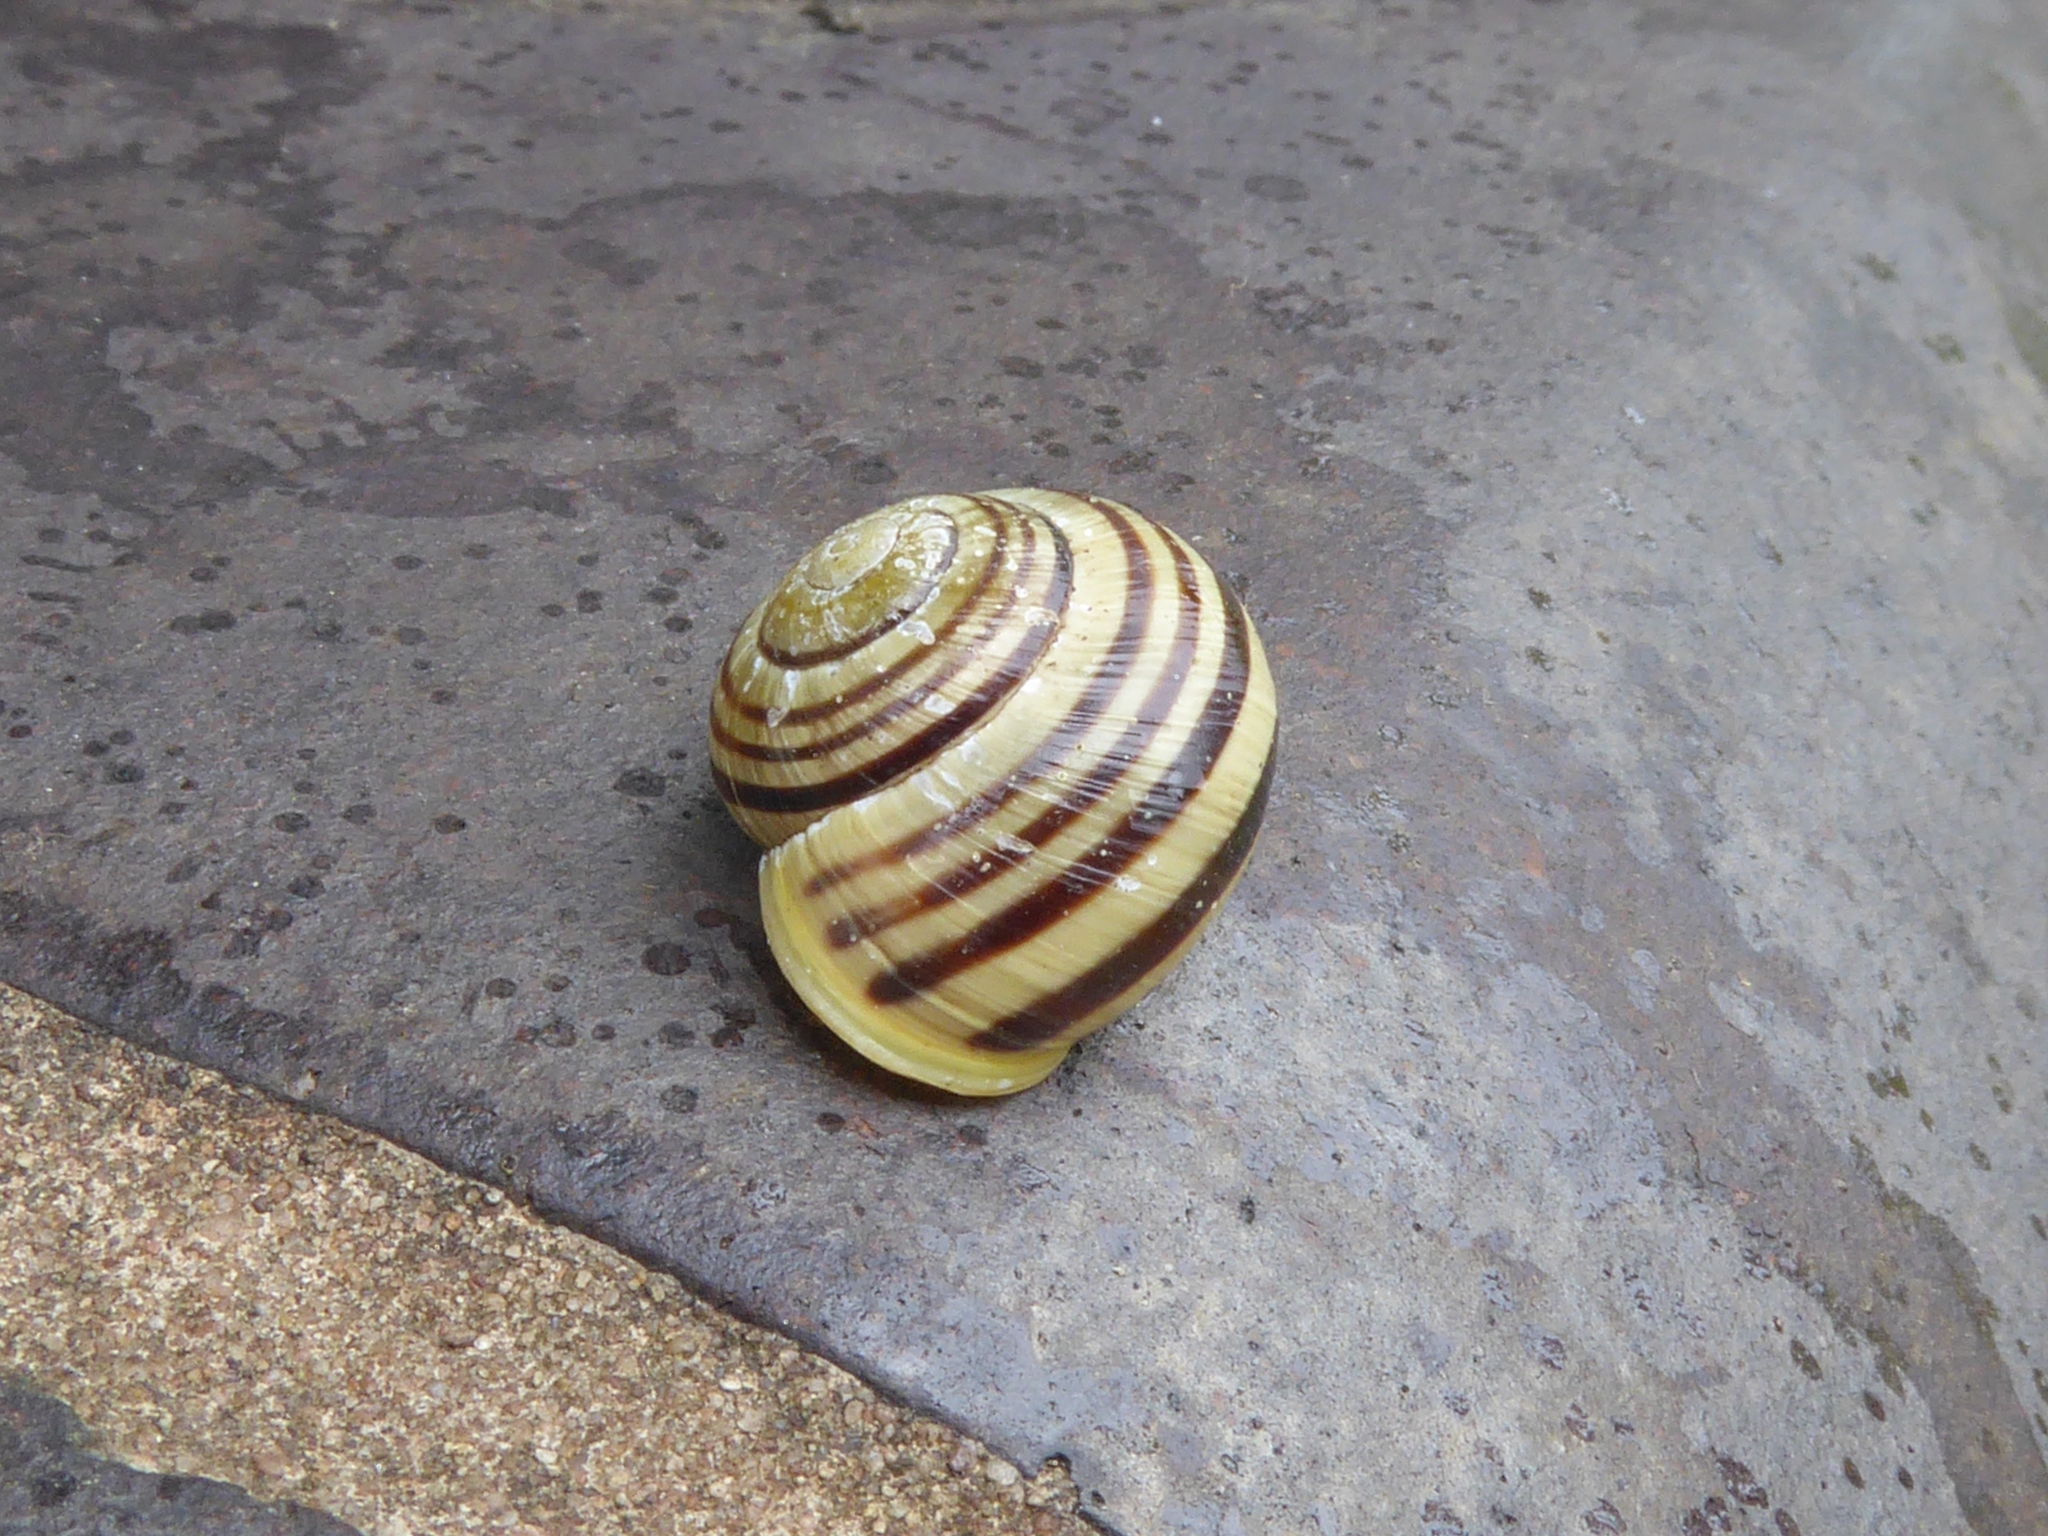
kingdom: Animalia
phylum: Mollusca
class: Gastropoda
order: Stylommatophora
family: Helicidae
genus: Cepaea
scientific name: Cepaea hortensis
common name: White-lip gardensnail
